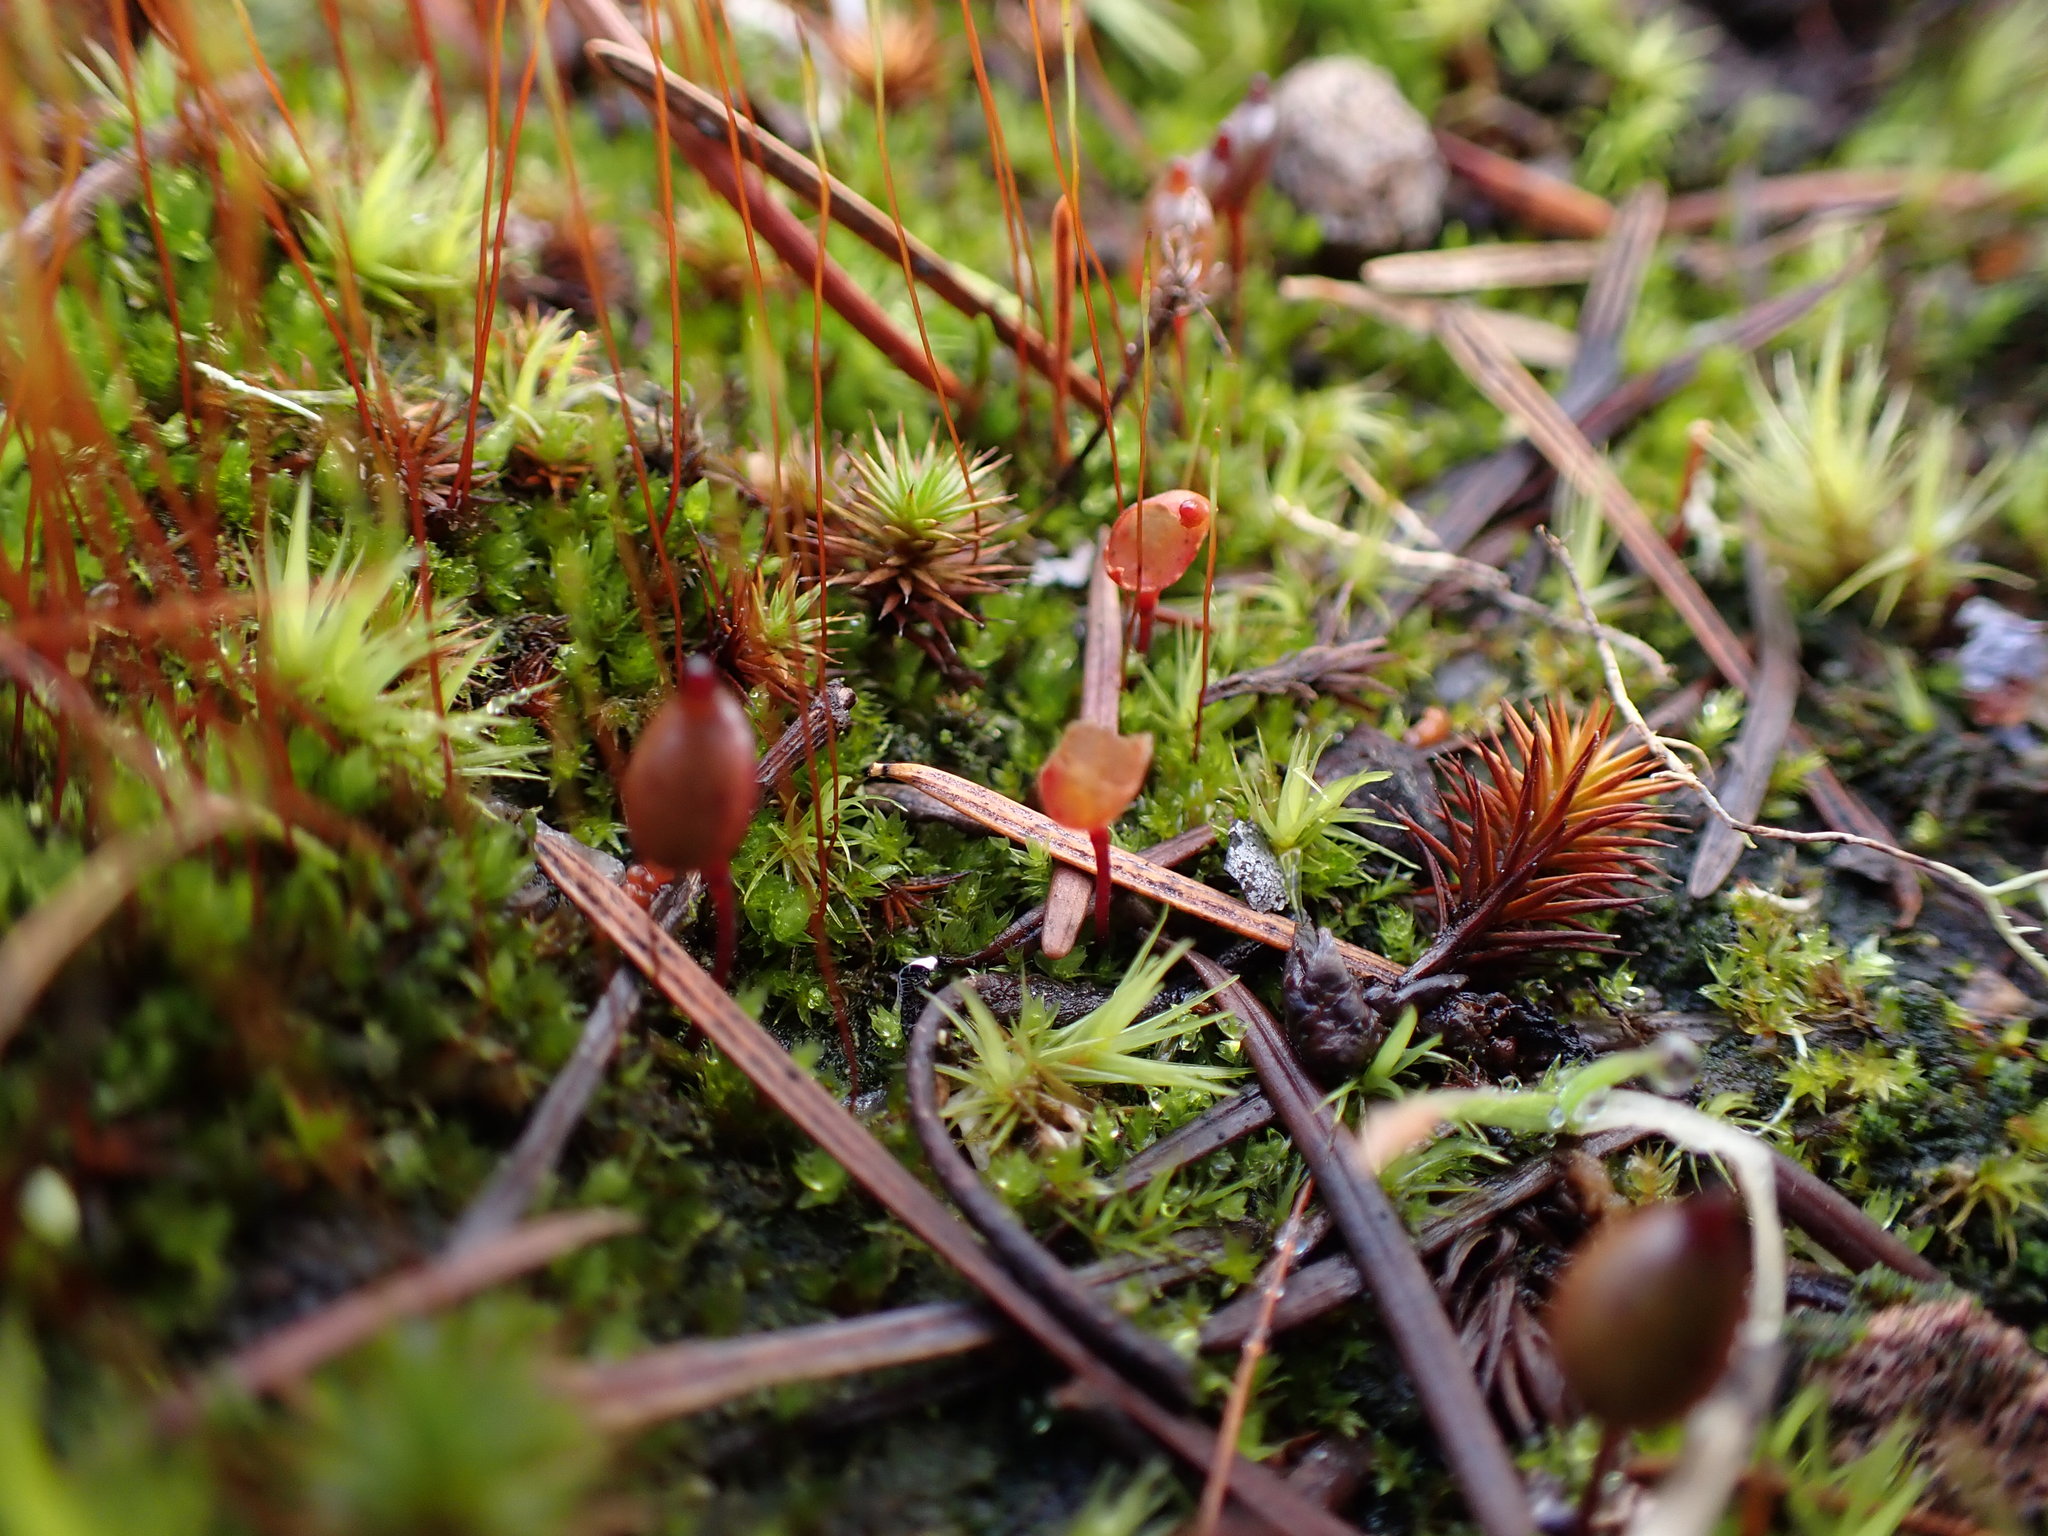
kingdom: Plantae
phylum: Bryophyta
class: Bryopsida
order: Buxbaumiales
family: Buxbaumiaceae
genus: Buxbaumia
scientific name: Buxbaumia aphylla
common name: Brown shield-moss
